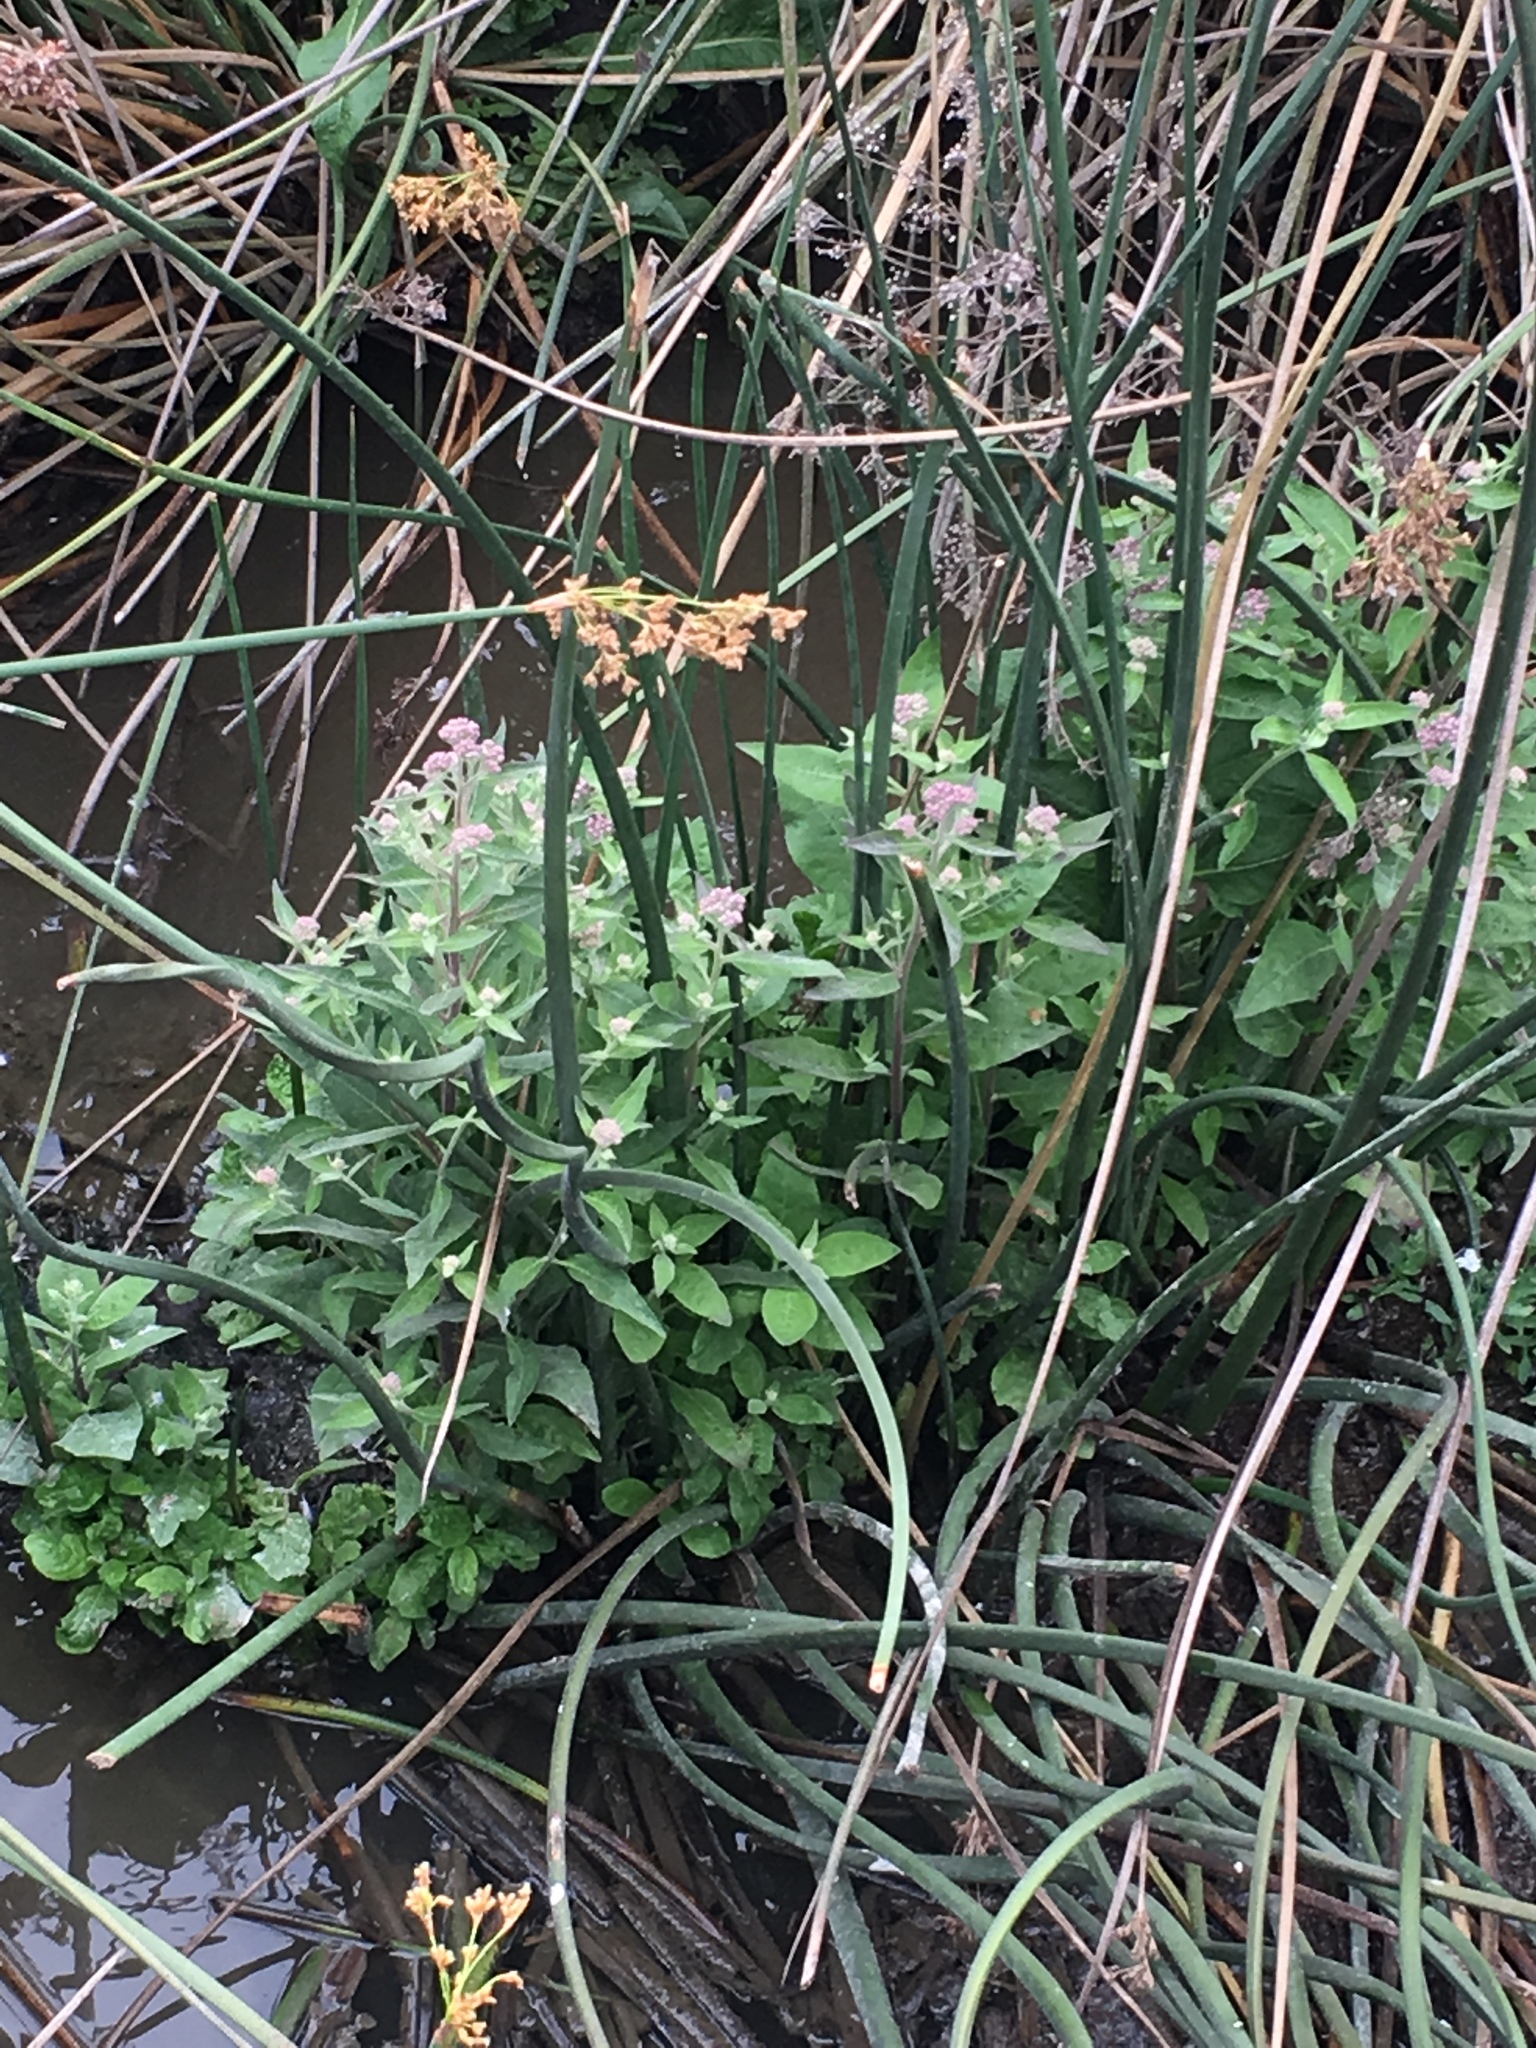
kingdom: Plantae
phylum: Tracheophyta
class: Magnoliopsida
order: Asterales
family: Asteraceae
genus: Pluchea
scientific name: Pluchea odorata
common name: Saltmarsh fleabane
